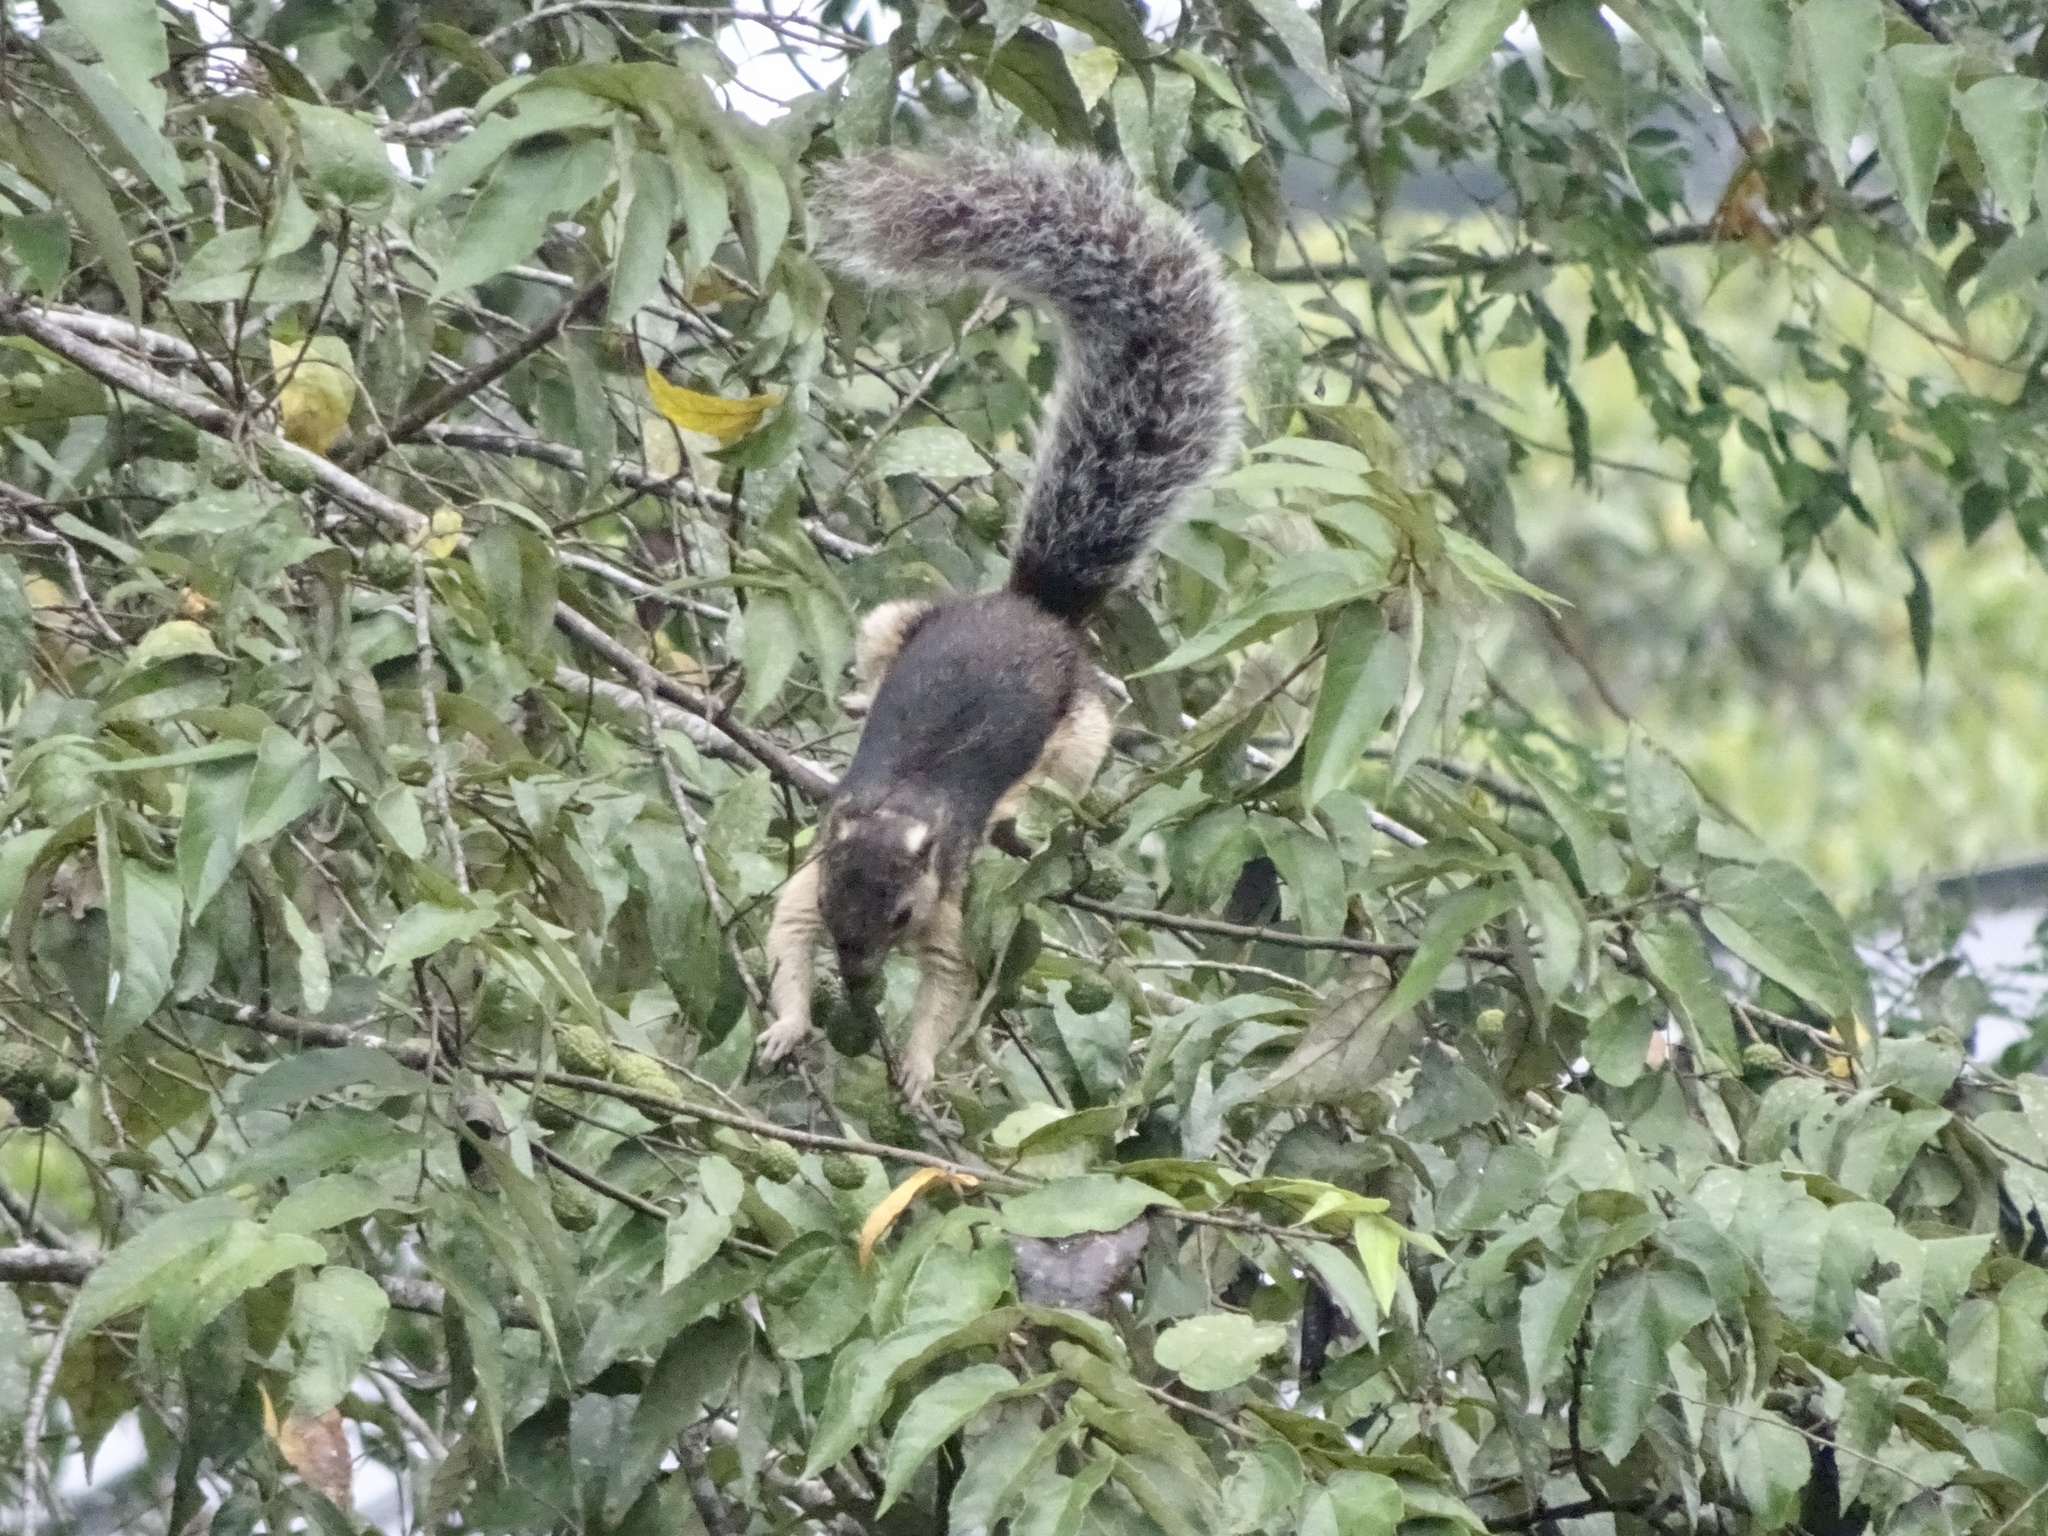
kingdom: Animalia
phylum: Chordata
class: Mammalia
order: Rodentia
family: Sciuridae
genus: Sciurus
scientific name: Sciurus variegatoides
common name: Variegated squirrel
